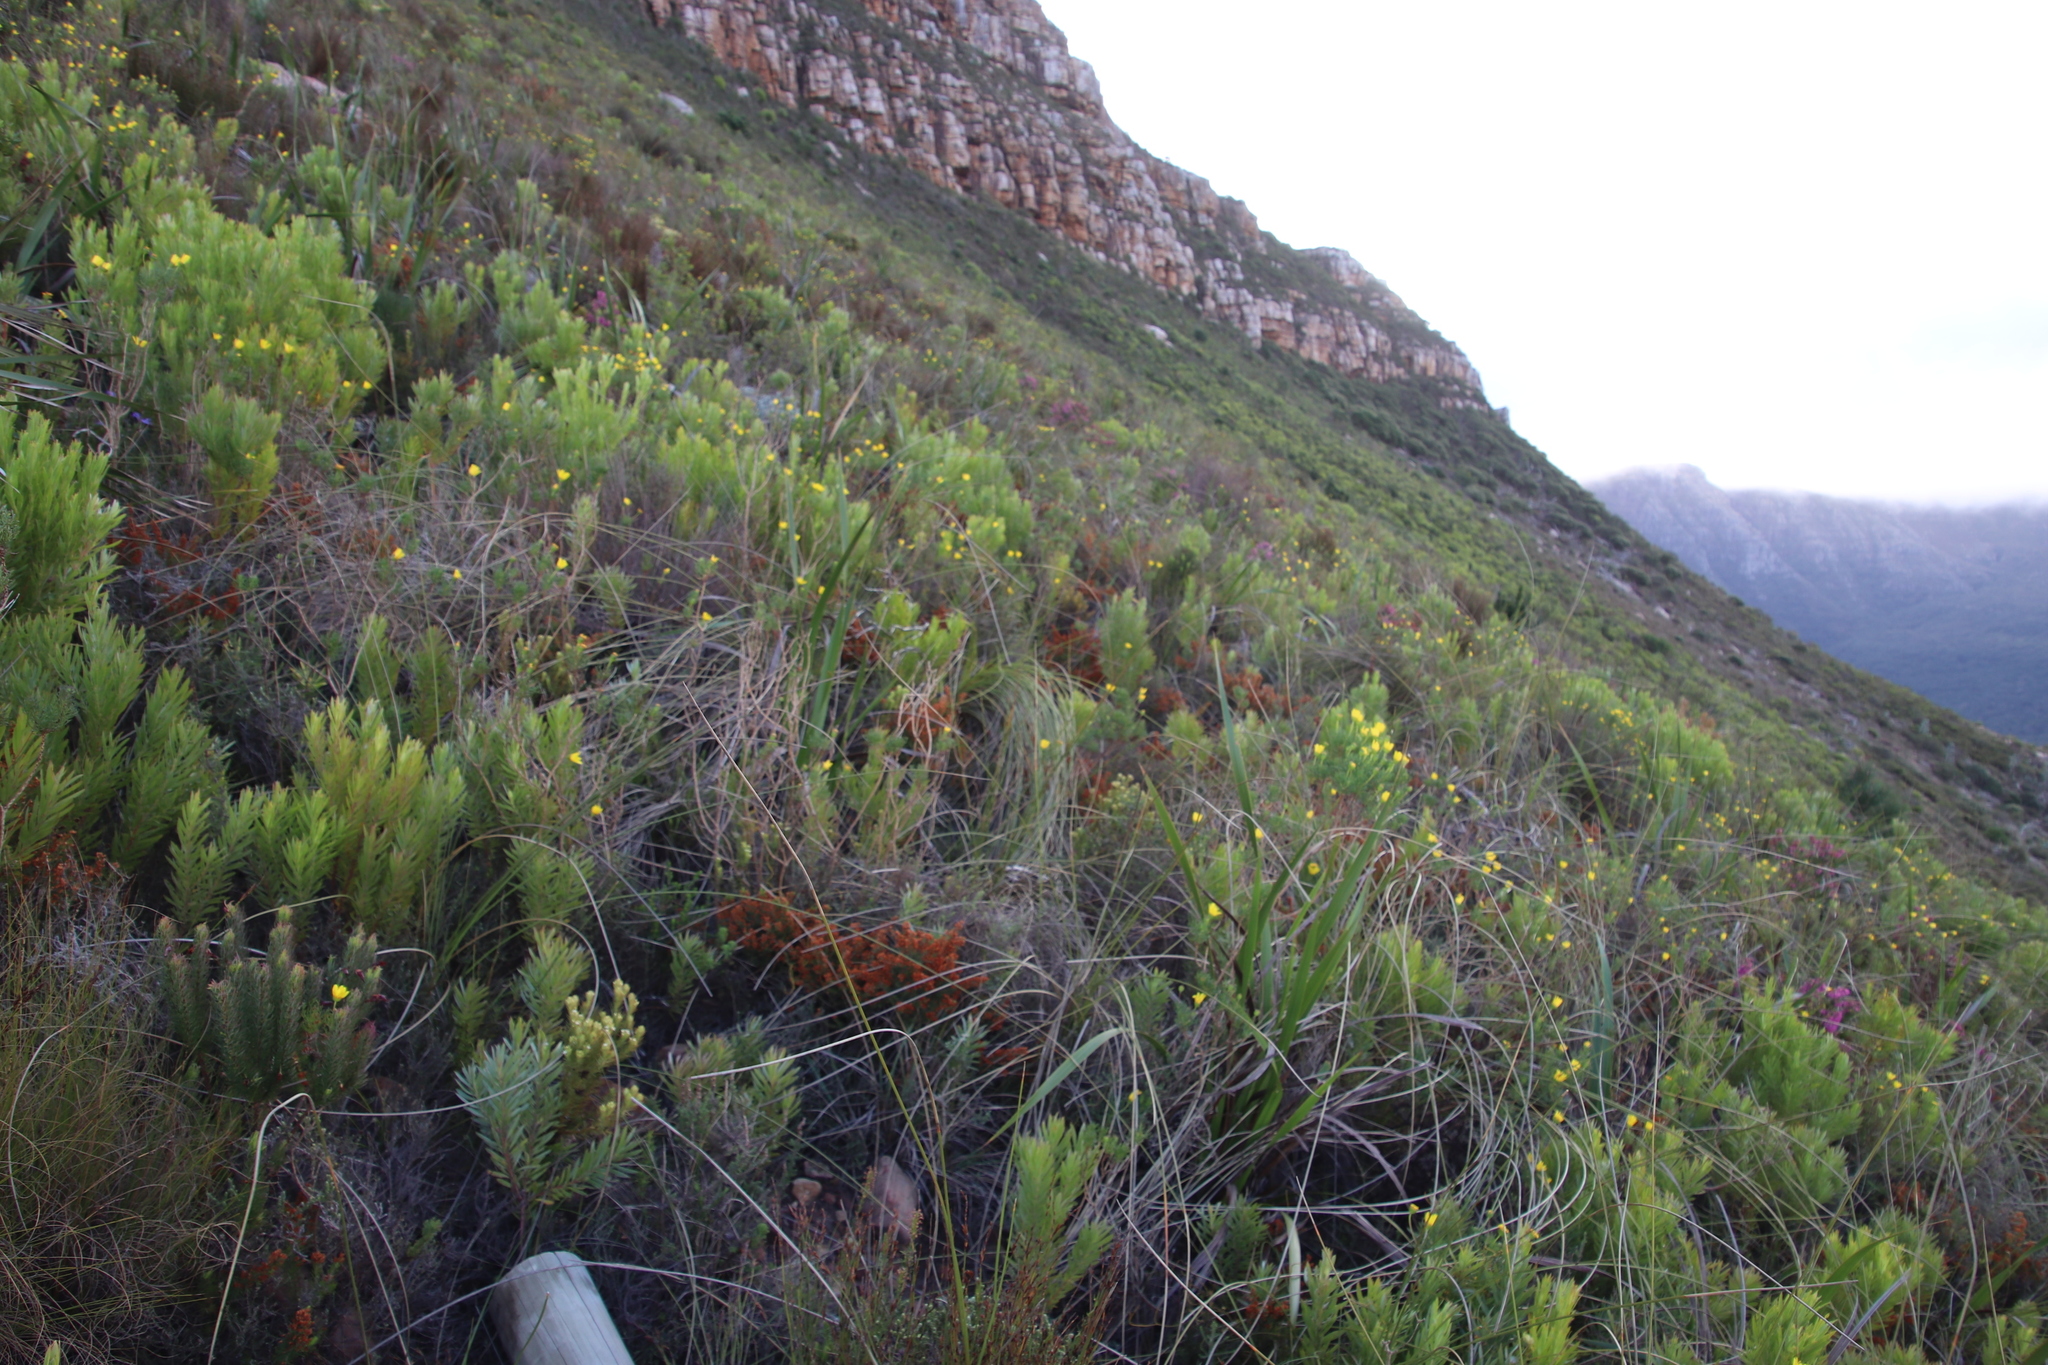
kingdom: Plantae
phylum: Tracheophyta
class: Magnoliopsida
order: Asterales
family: Asteraceae
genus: Euryops
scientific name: Euryops abrotanifolius
